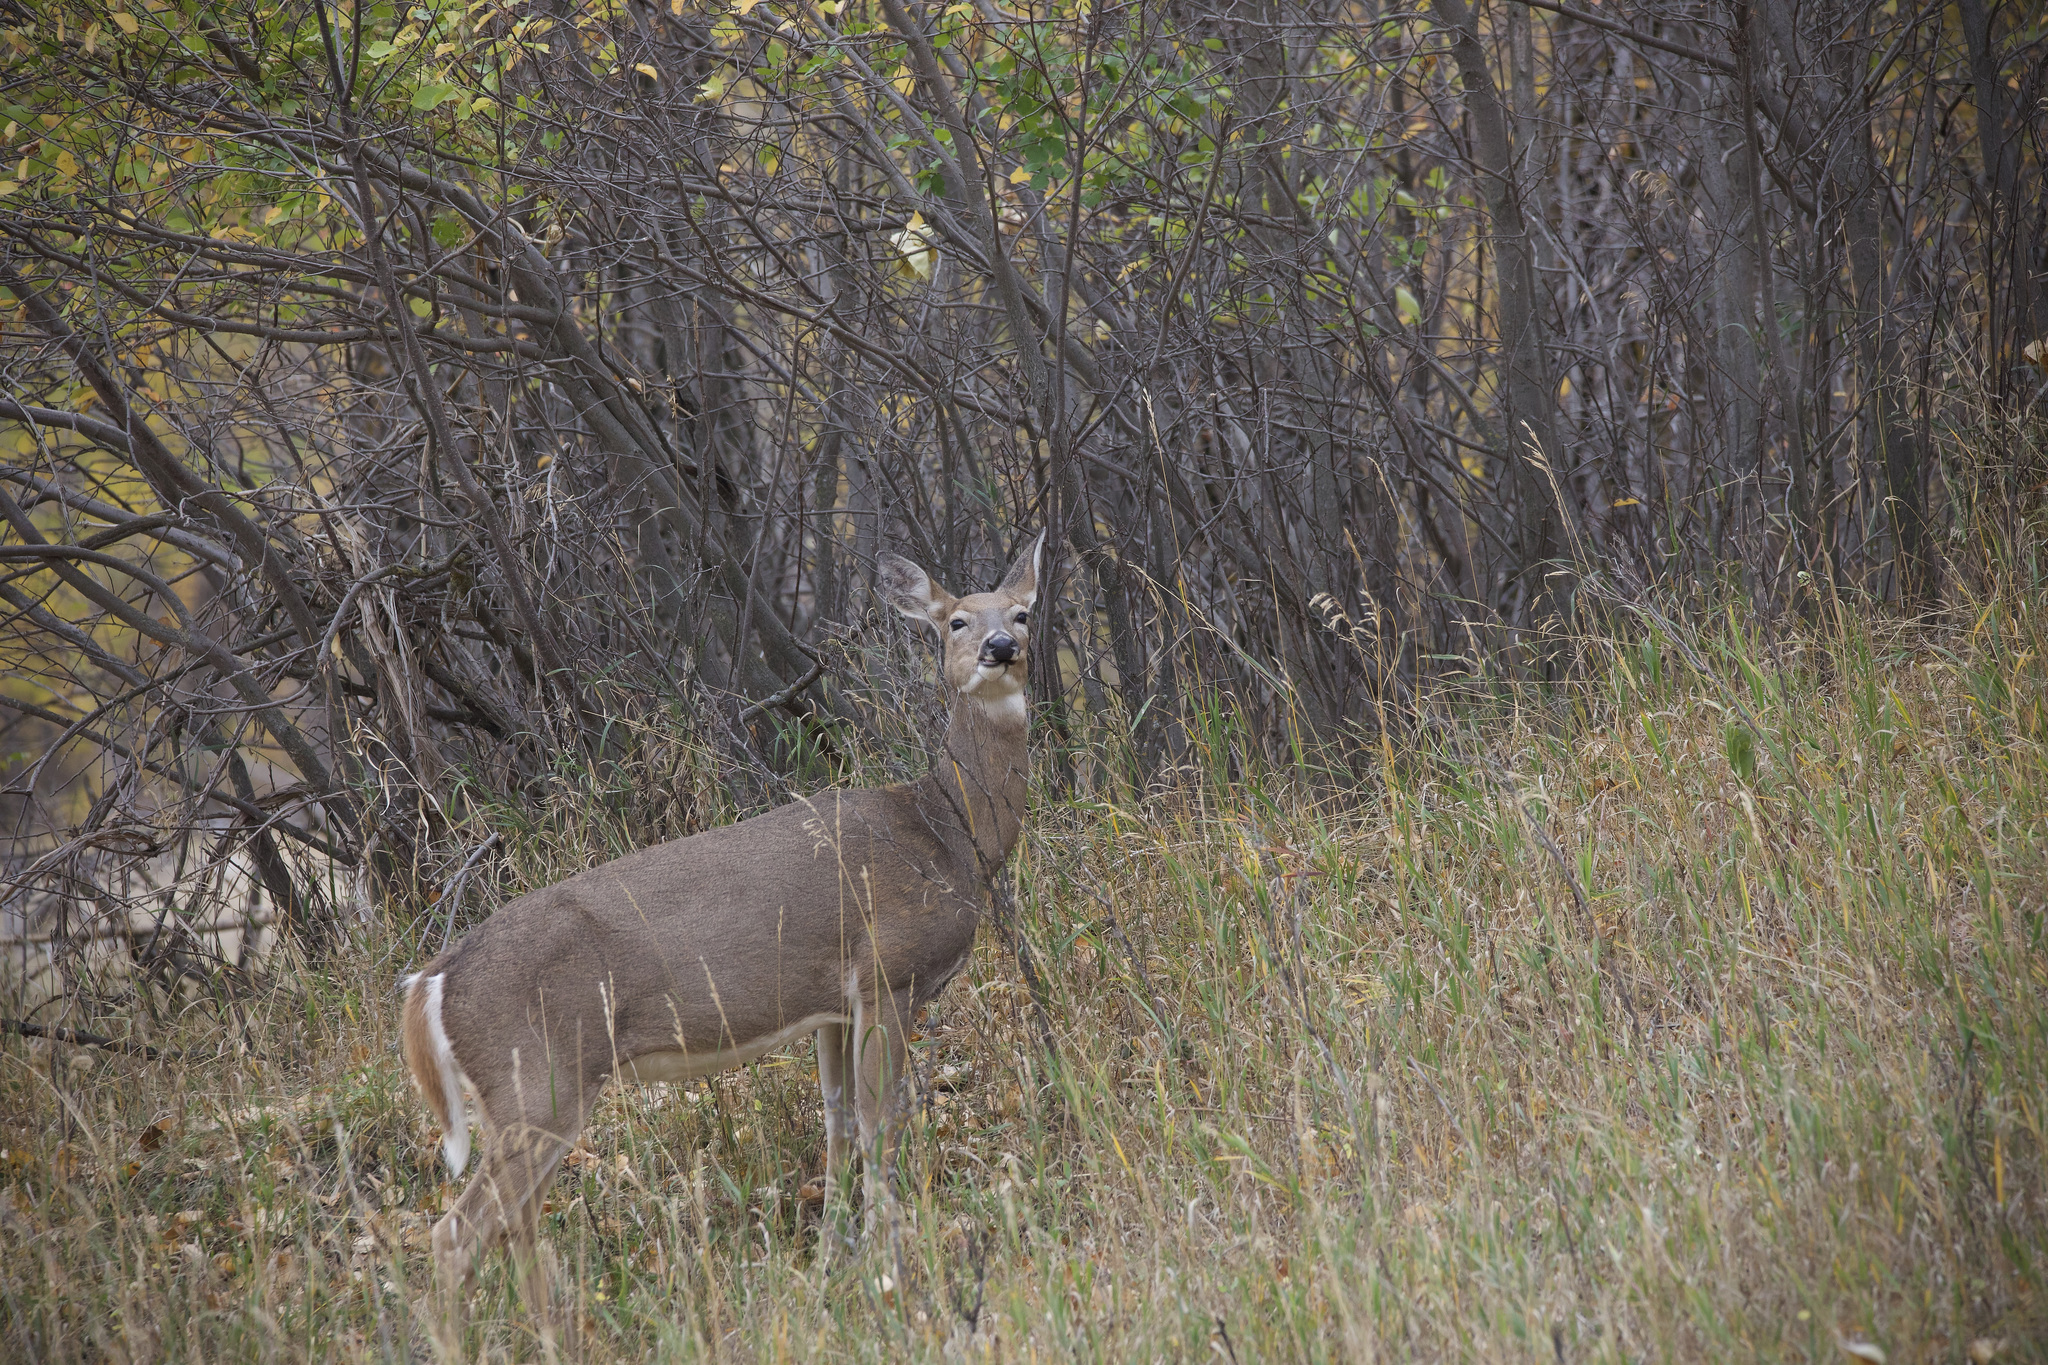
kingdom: Animalia
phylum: Chordata
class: Mammalia
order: Artiodactyla
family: Cervidae
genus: Odocoileus
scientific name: Odocoileus virginianus
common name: White-tailed deer
